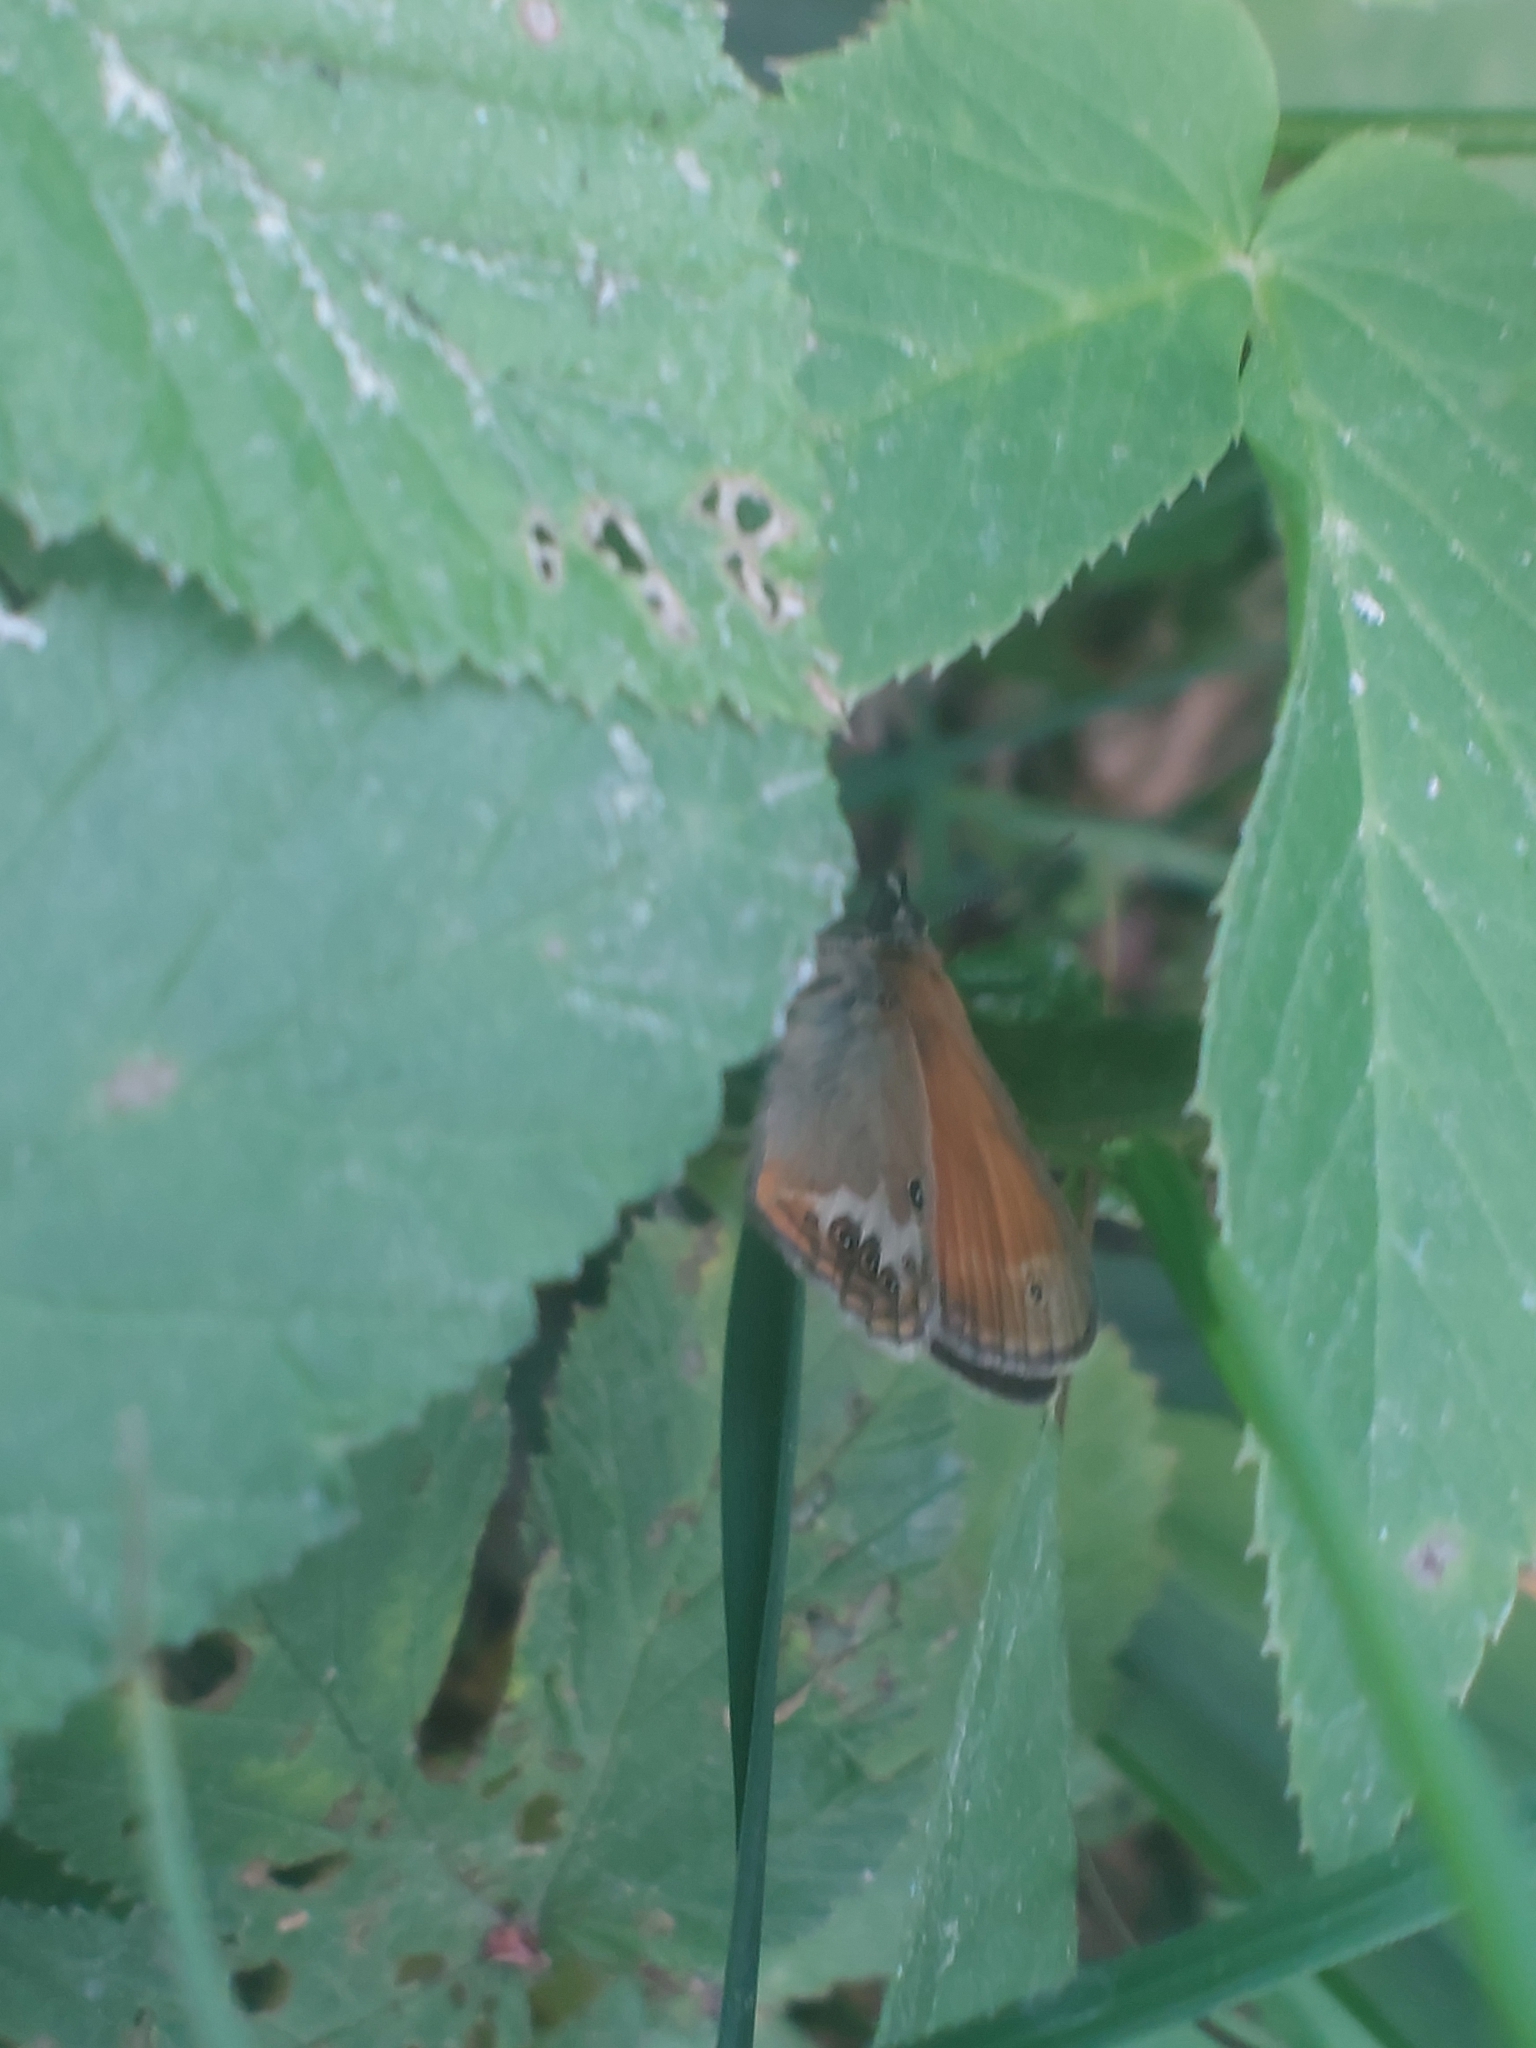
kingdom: Animalia
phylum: Arthropoda
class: Insecta
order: Lepidoptera
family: Nymphalidae
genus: Coenonympha
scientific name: Coenonympha arcania
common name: Pearly heath
